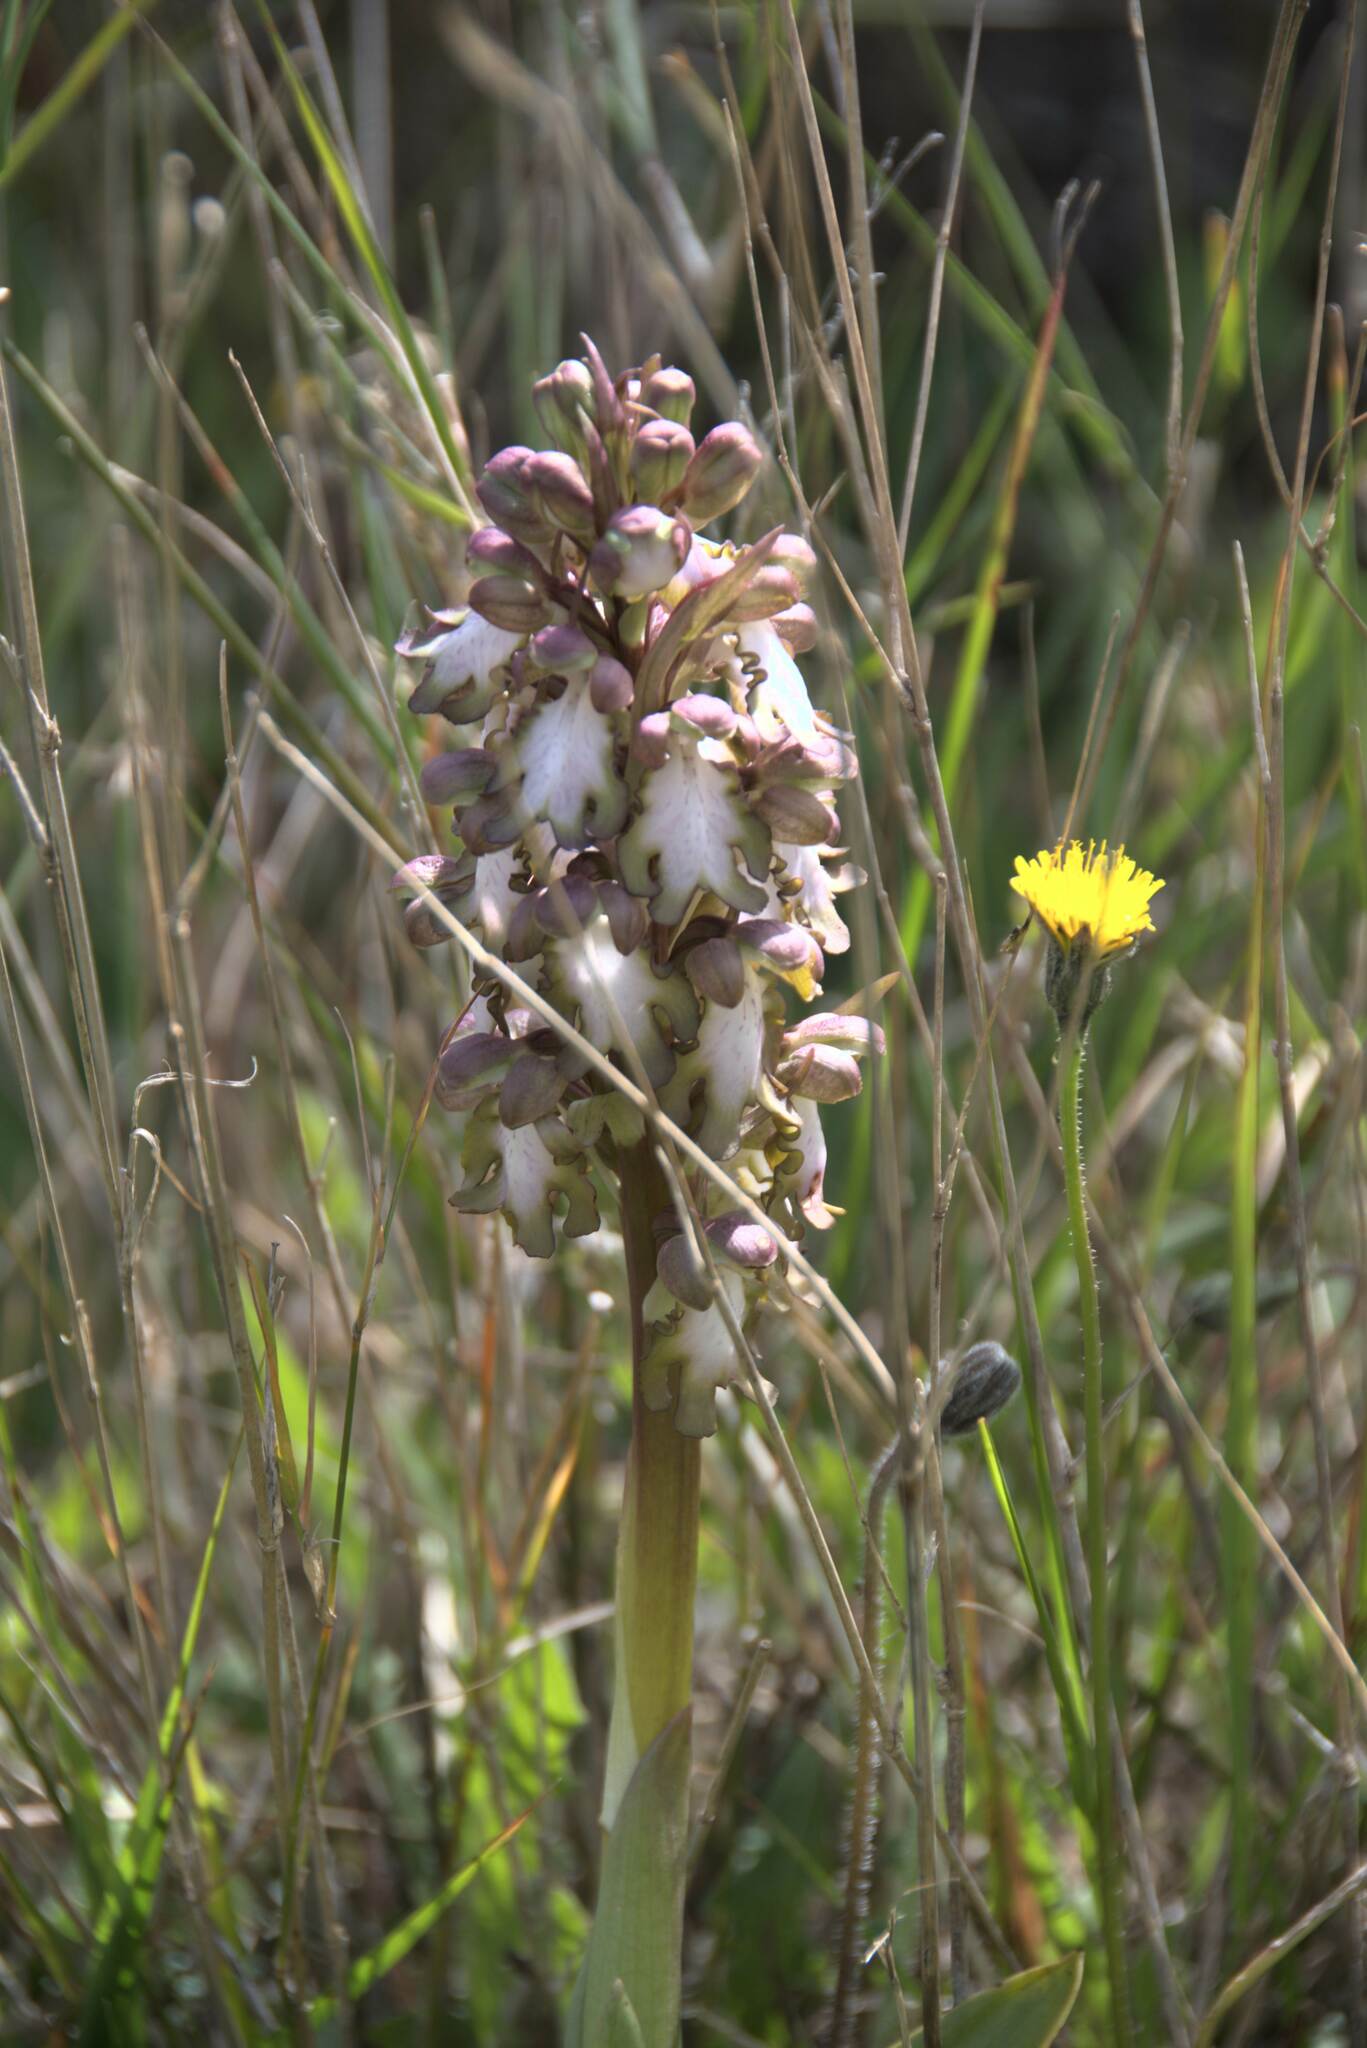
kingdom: Plantae
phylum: Tracheophyta
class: Liliopsida
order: Asparagales
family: Orchidaceae
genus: Himantoglossum
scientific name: Himantoglossum robertianum
